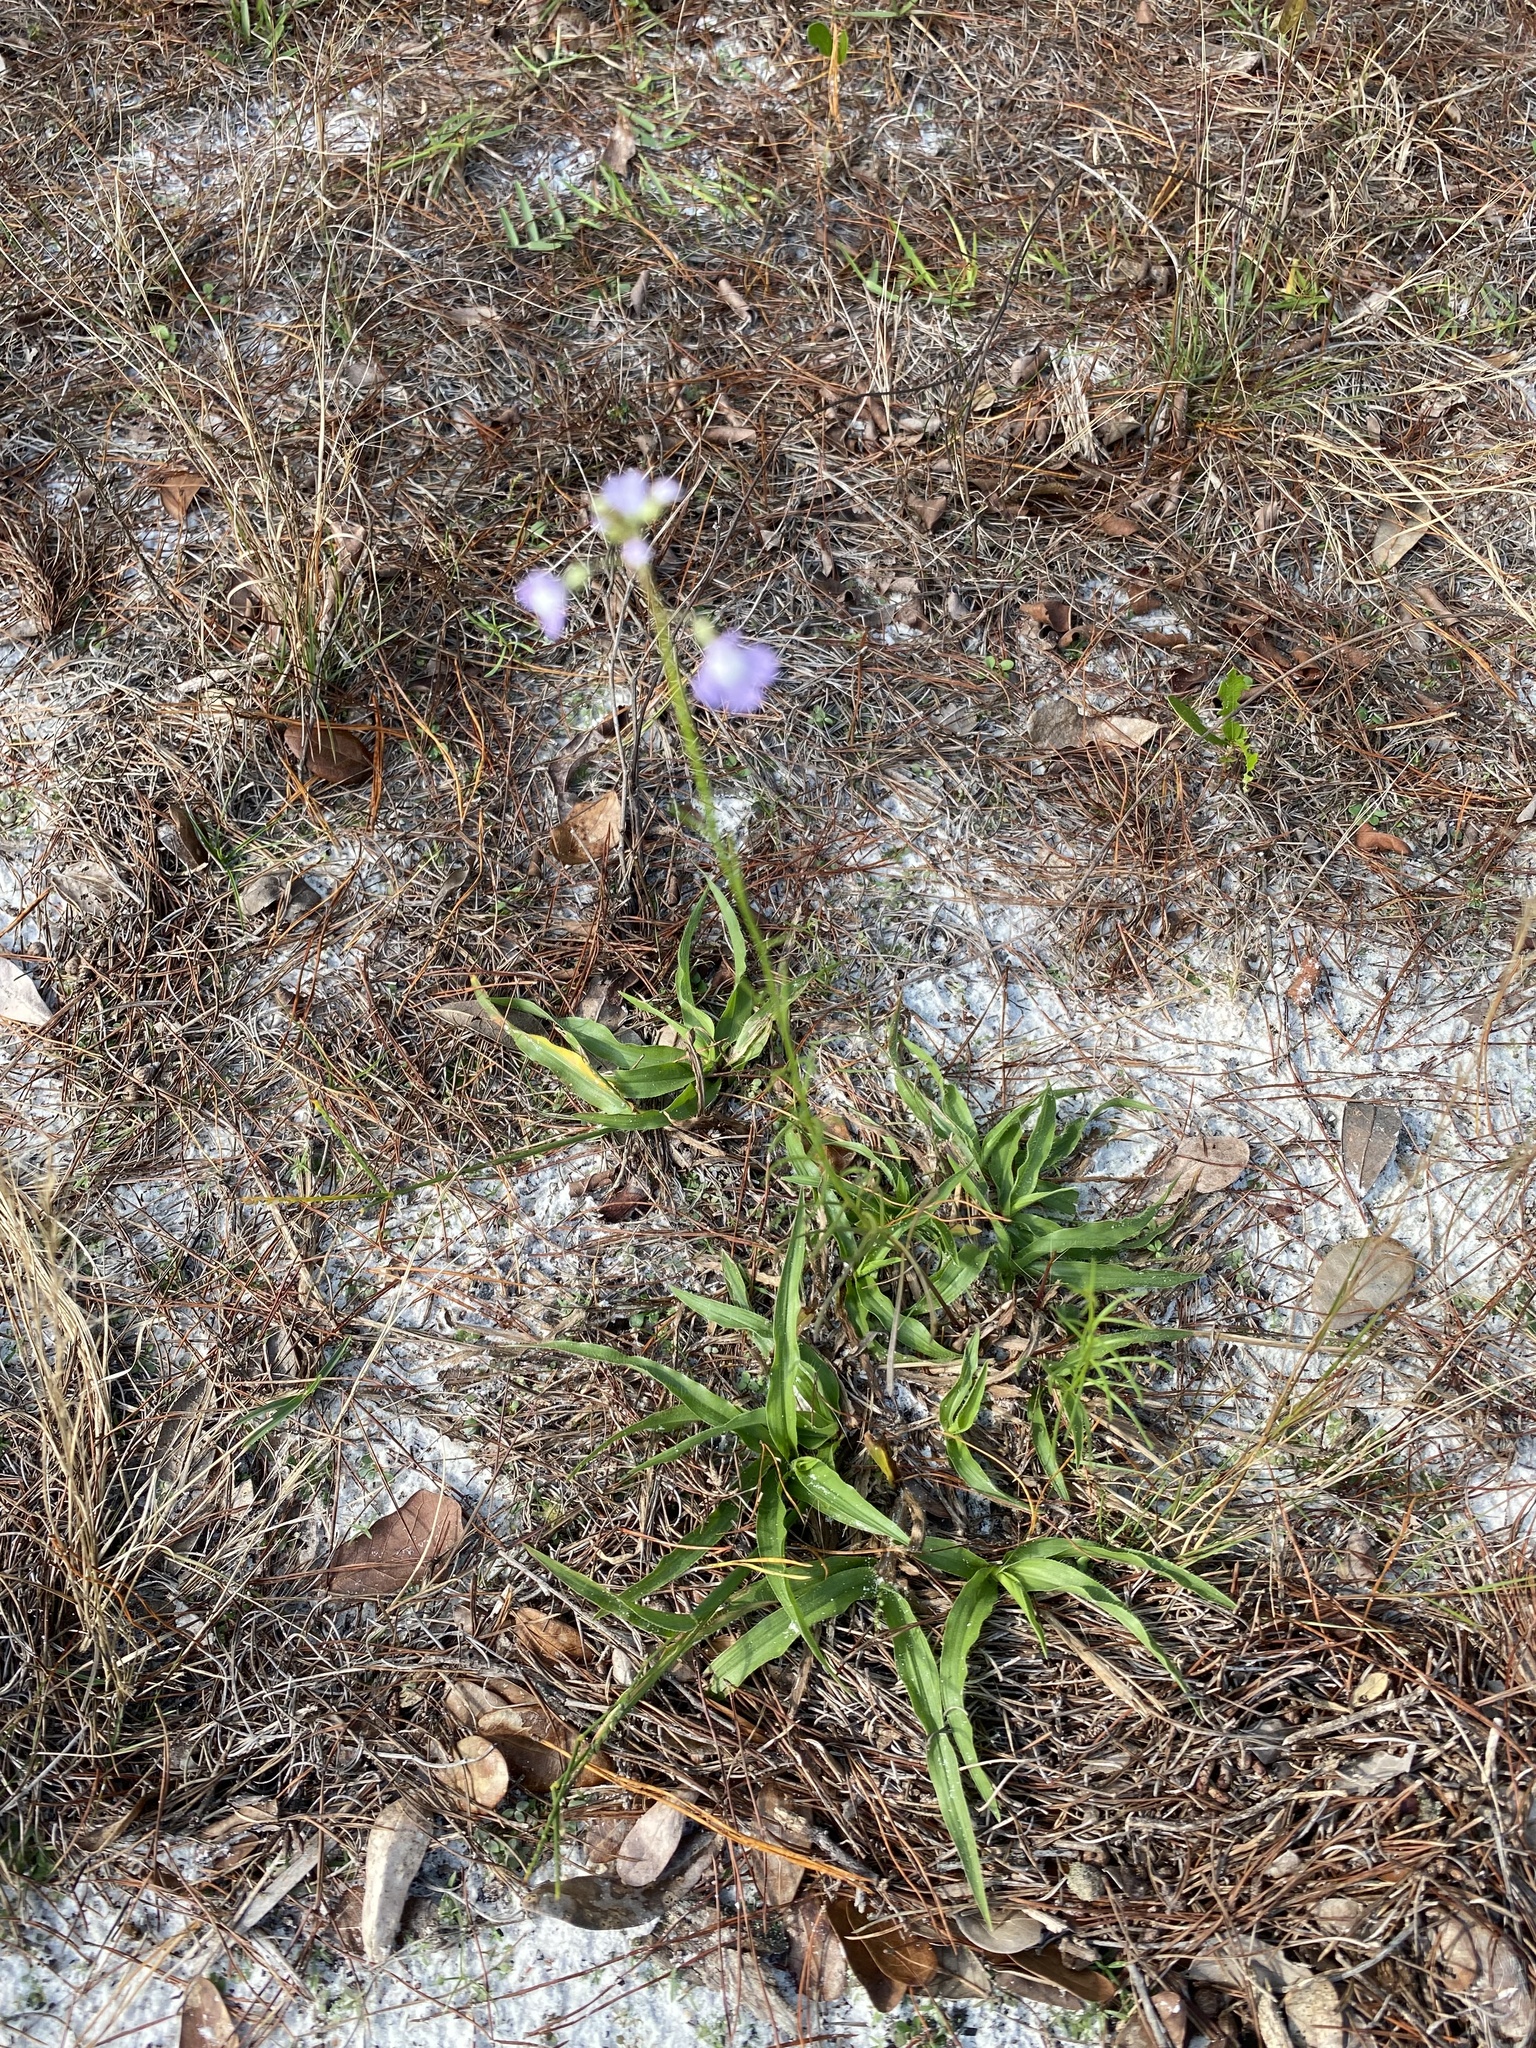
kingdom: Plantae
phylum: Tracheophyta
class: Magnoliopsida
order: Lamiales
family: Plantaginaceae
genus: Nuttallanthus
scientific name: Nuttallanthus floridanus
